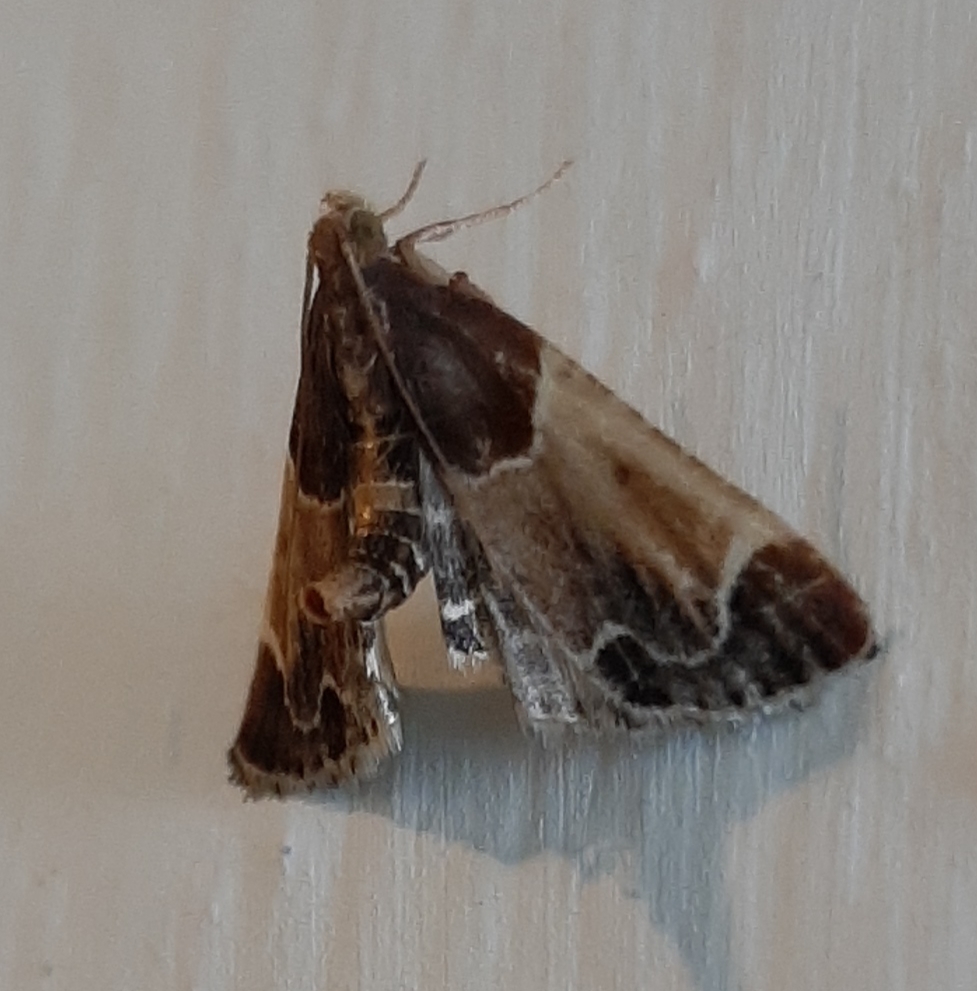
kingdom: Animalia
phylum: Arthropoda
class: Insecta
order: Lepidoptera
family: Pyralidae
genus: Pyralis
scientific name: Pyralis farinalis
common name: Meal moth
